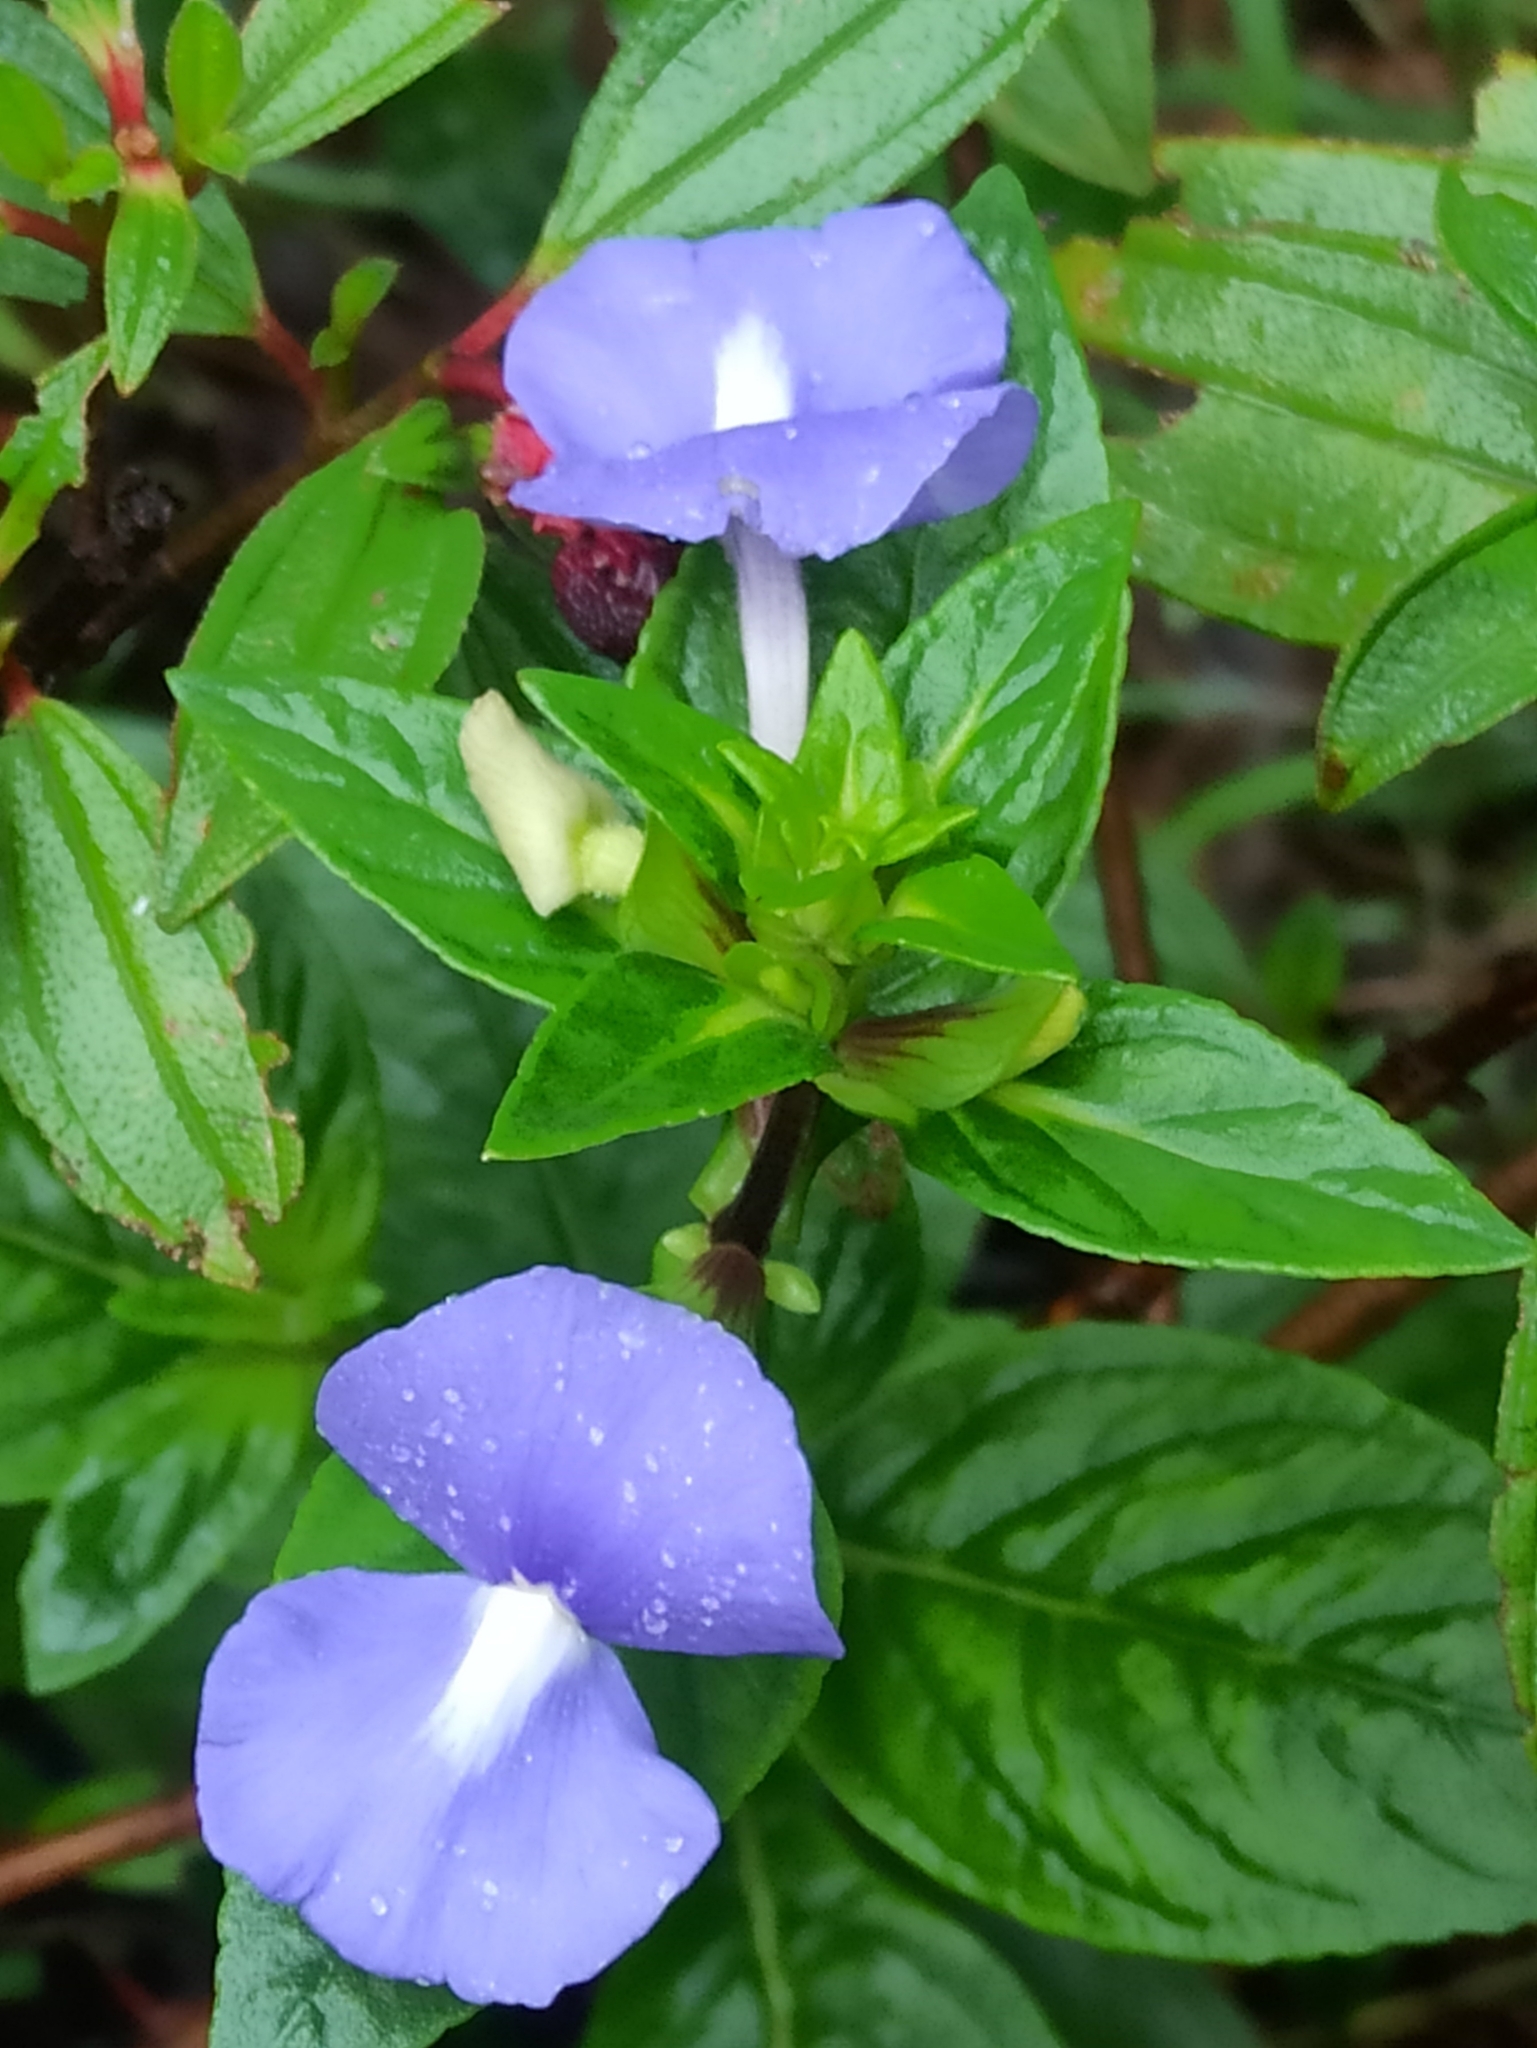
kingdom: Plantae
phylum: Tracheophyta
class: Magnoliopsida
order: Lamiales
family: Plantaginaceae
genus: Matourea
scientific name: Matourea azurea
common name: Amazon blue
